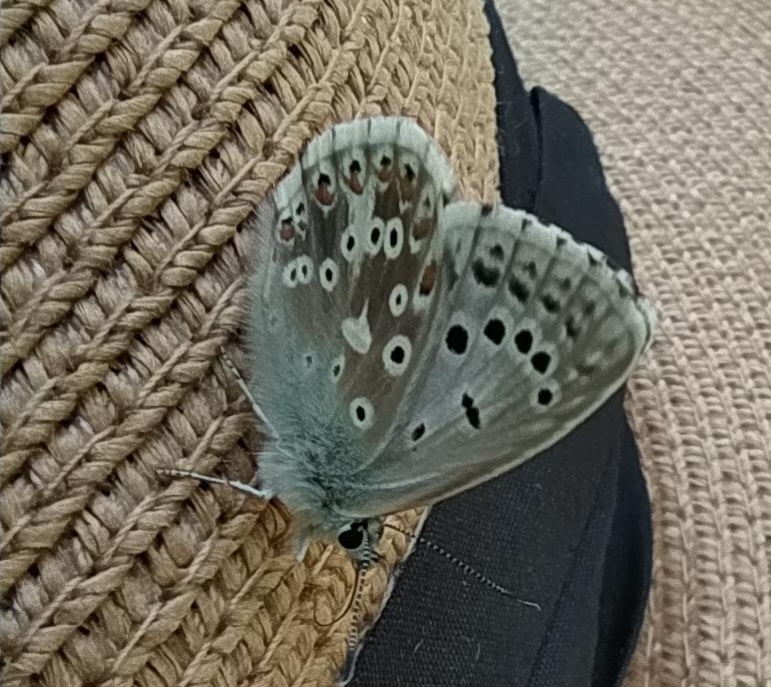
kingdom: Animalia
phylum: Arthropoda
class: Insecta
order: Lepidoptera
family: Lycaenidae
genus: Lysandra
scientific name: Lysandra coridon
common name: Chalkhill blue
